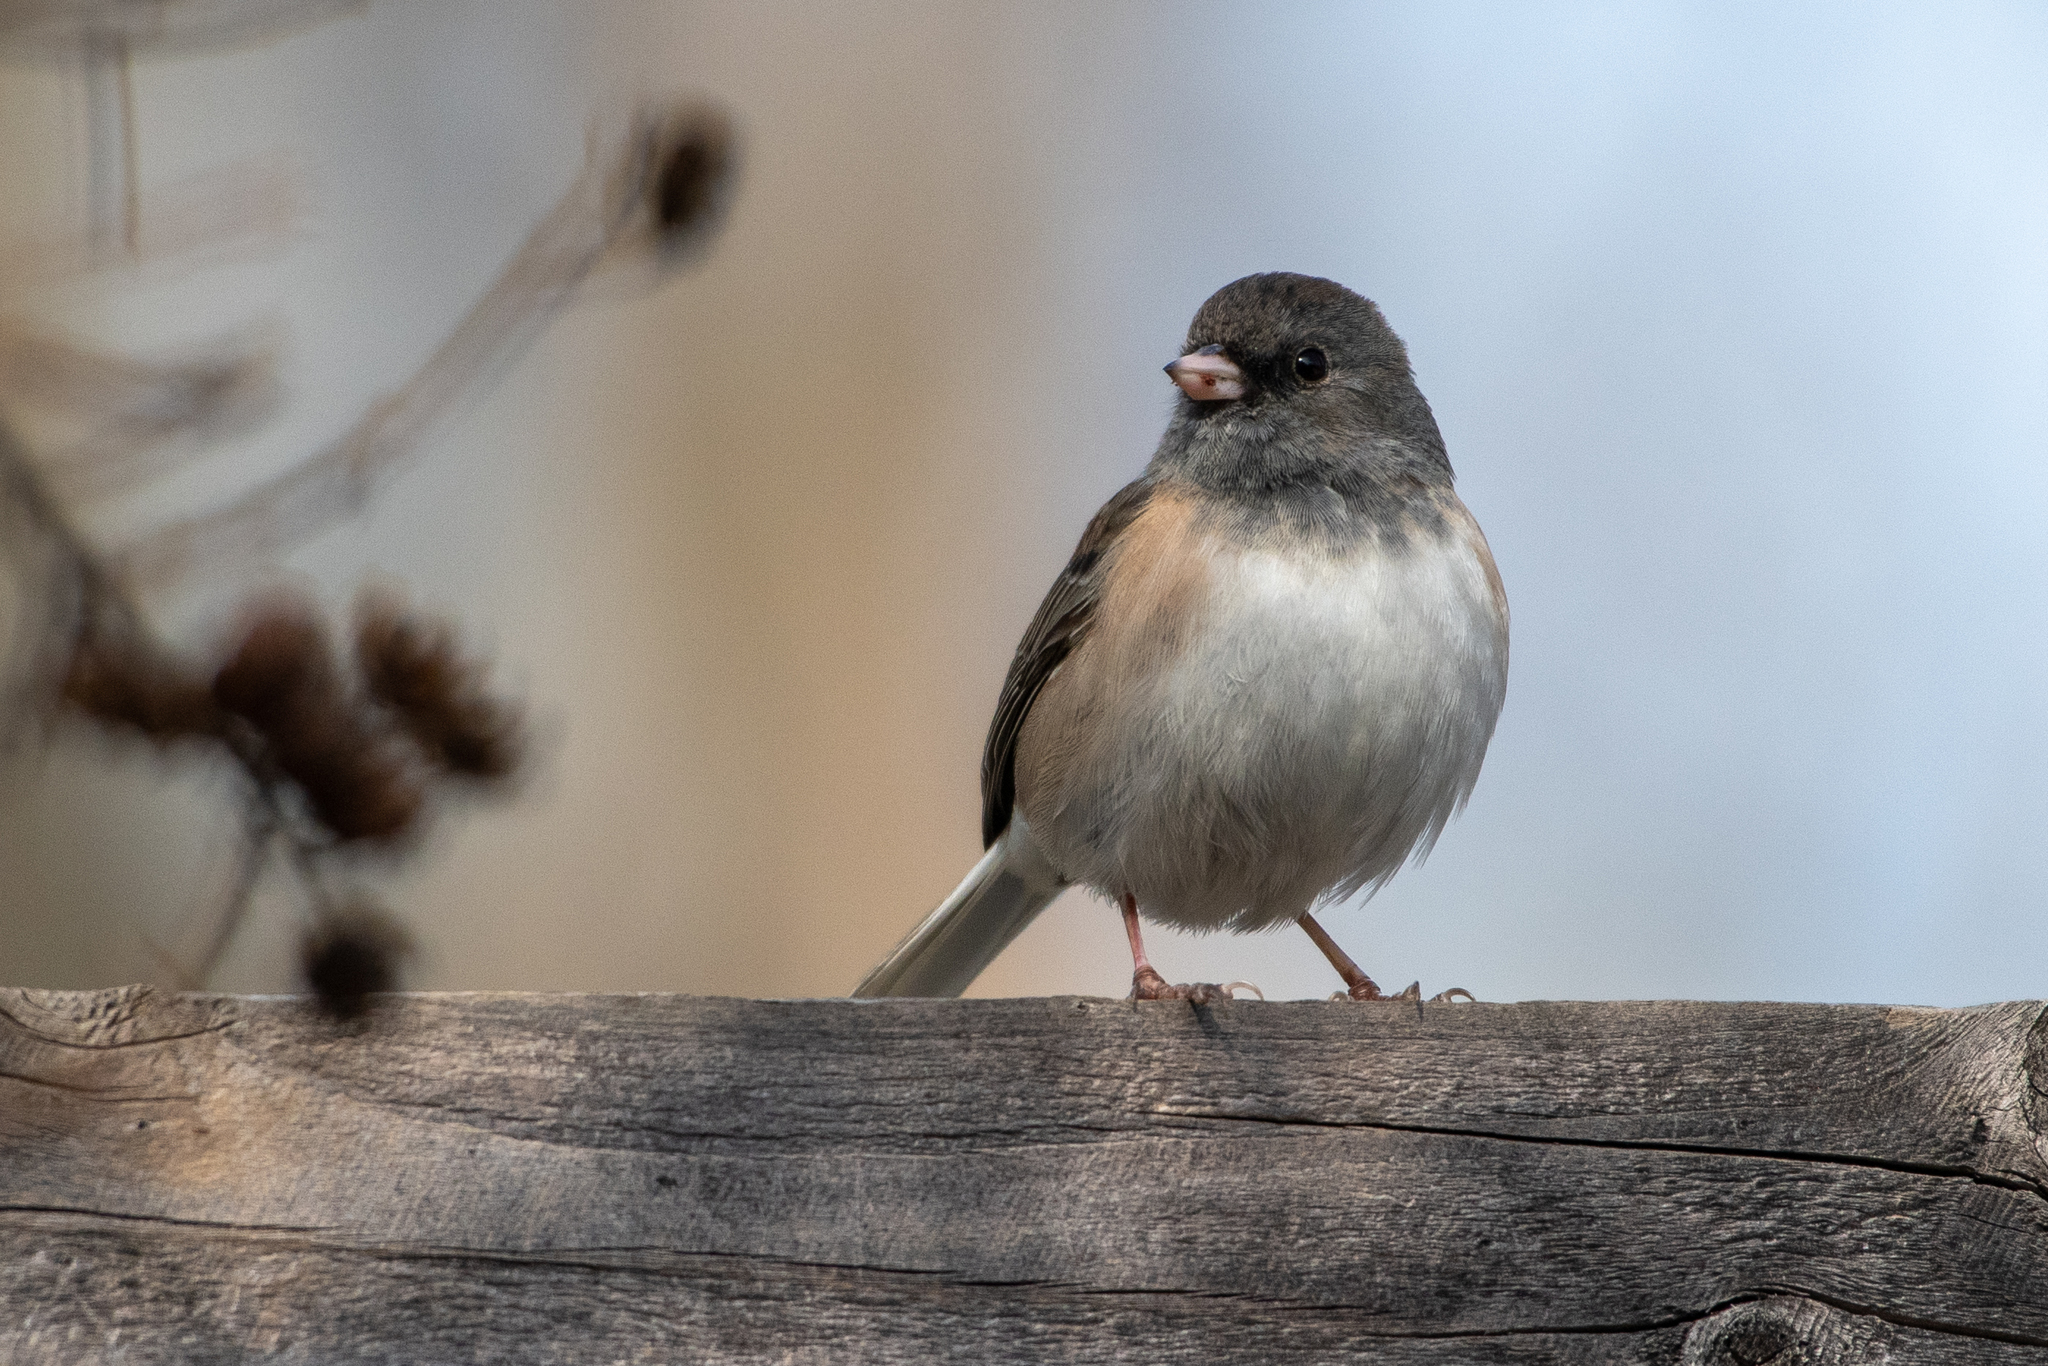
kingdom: Animalia
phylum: Chordata
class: Aves
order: Passeriformes
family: Passerellidae
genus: Junco
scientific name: Junco hyemalis
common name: Dark-eyed junco
